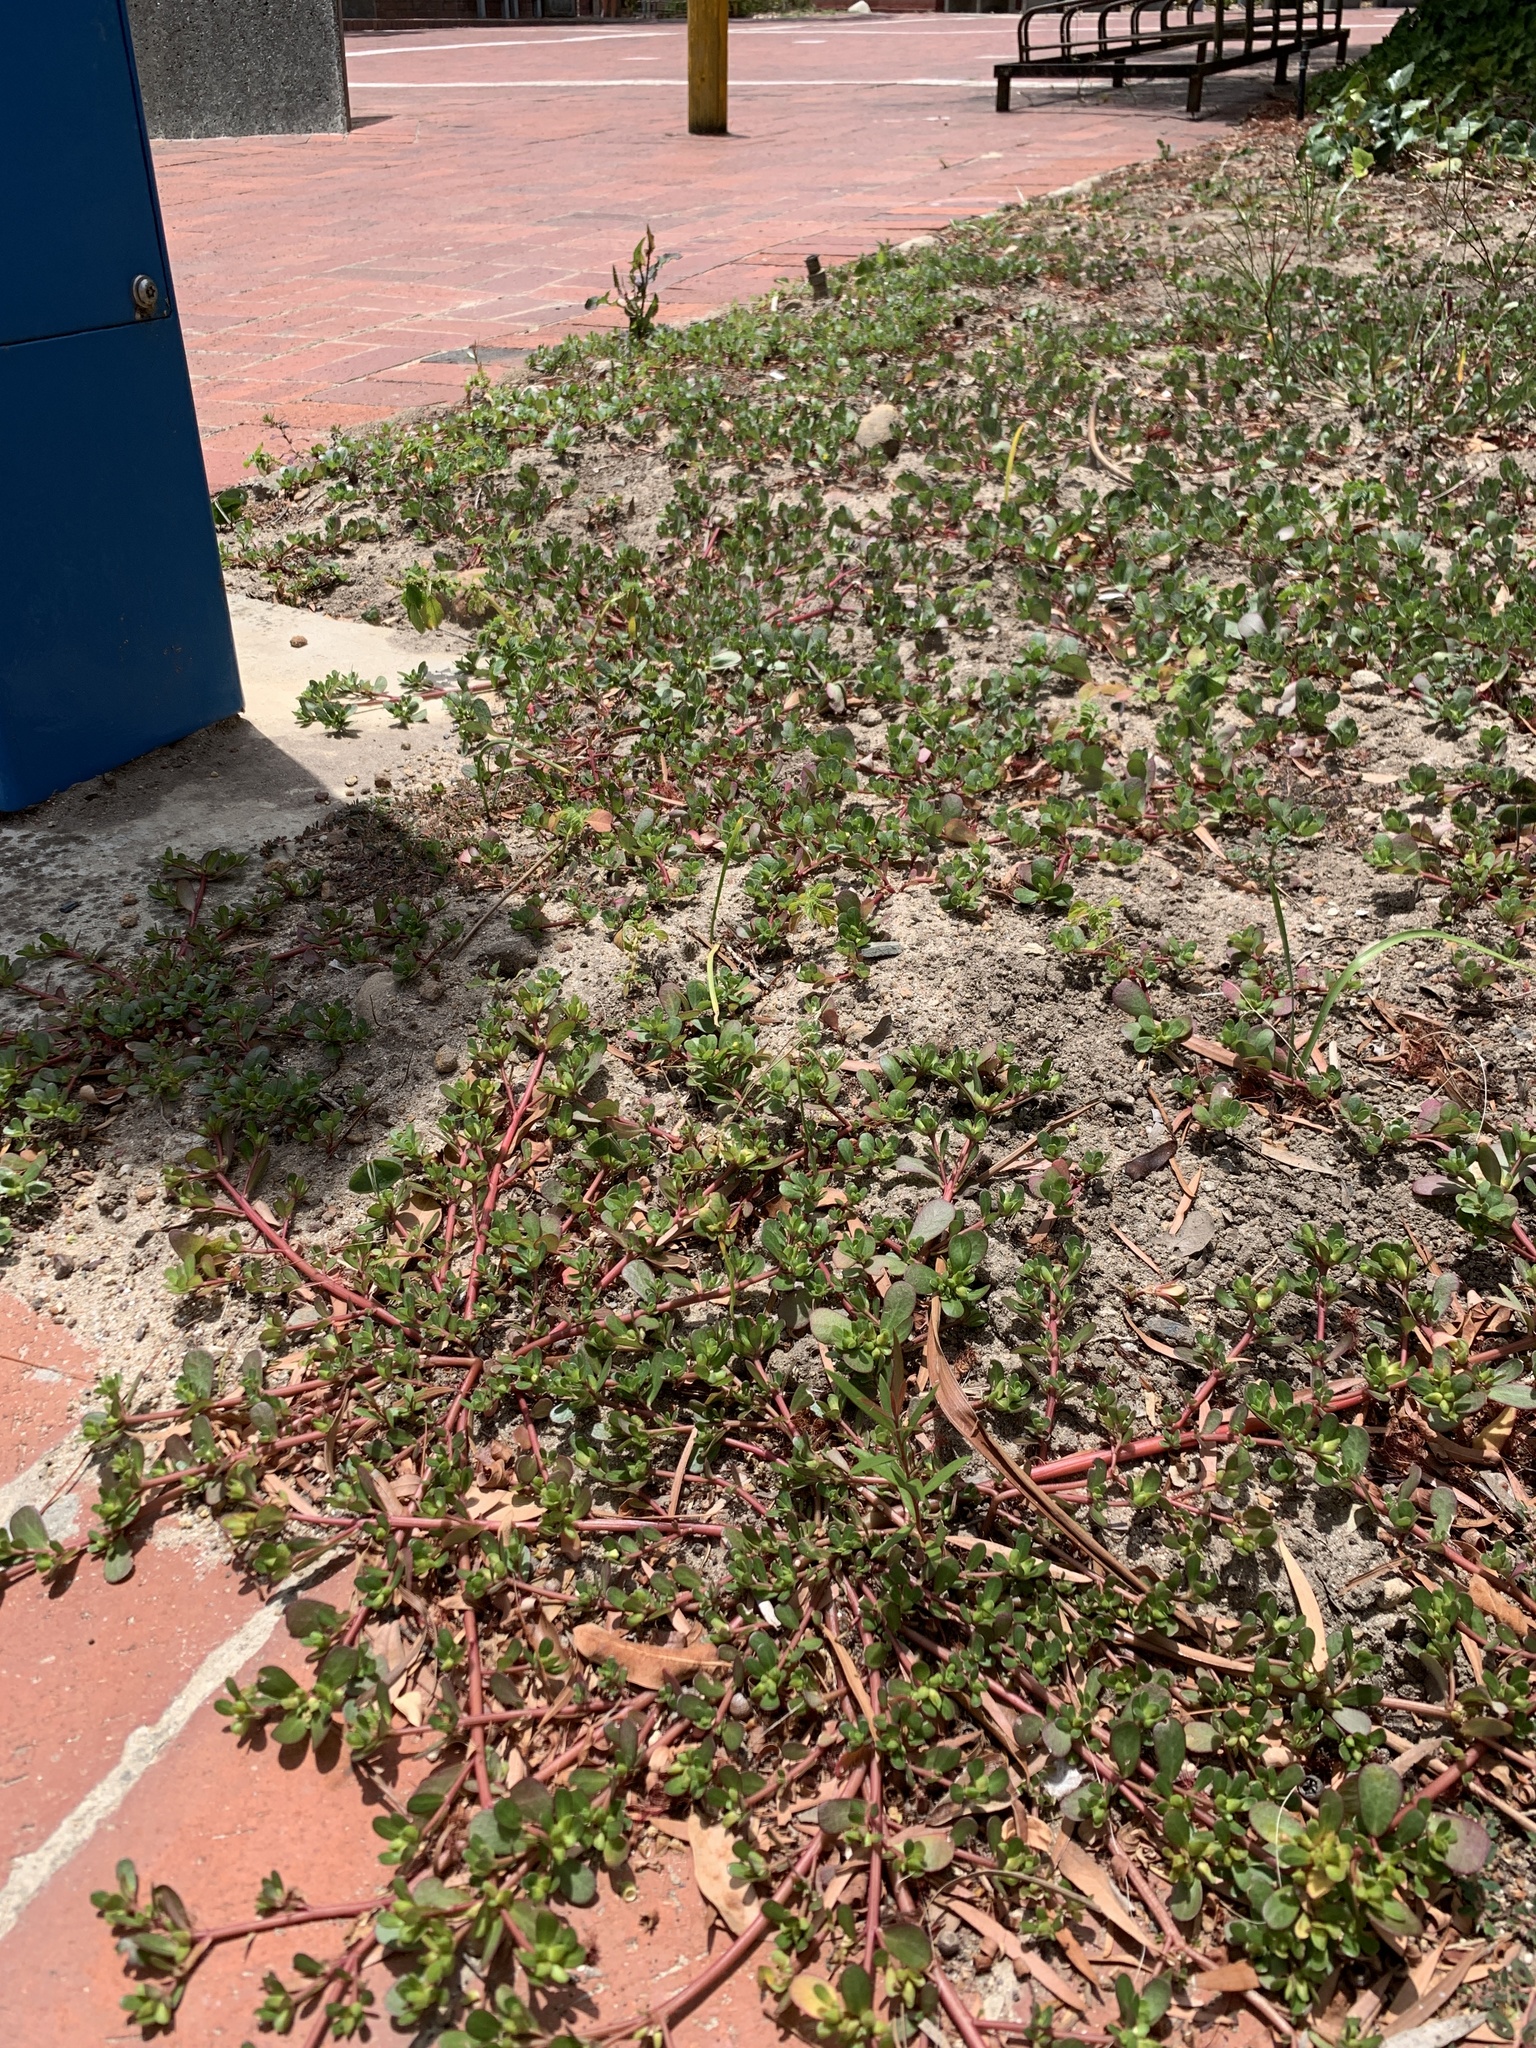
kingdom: Plantae
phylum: Tracheophyta
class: Magnoliopsida
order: Caryophyllales
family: Portulacaceae
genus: Portulaca
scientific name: Portulaca oleracea
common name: Common purslane
